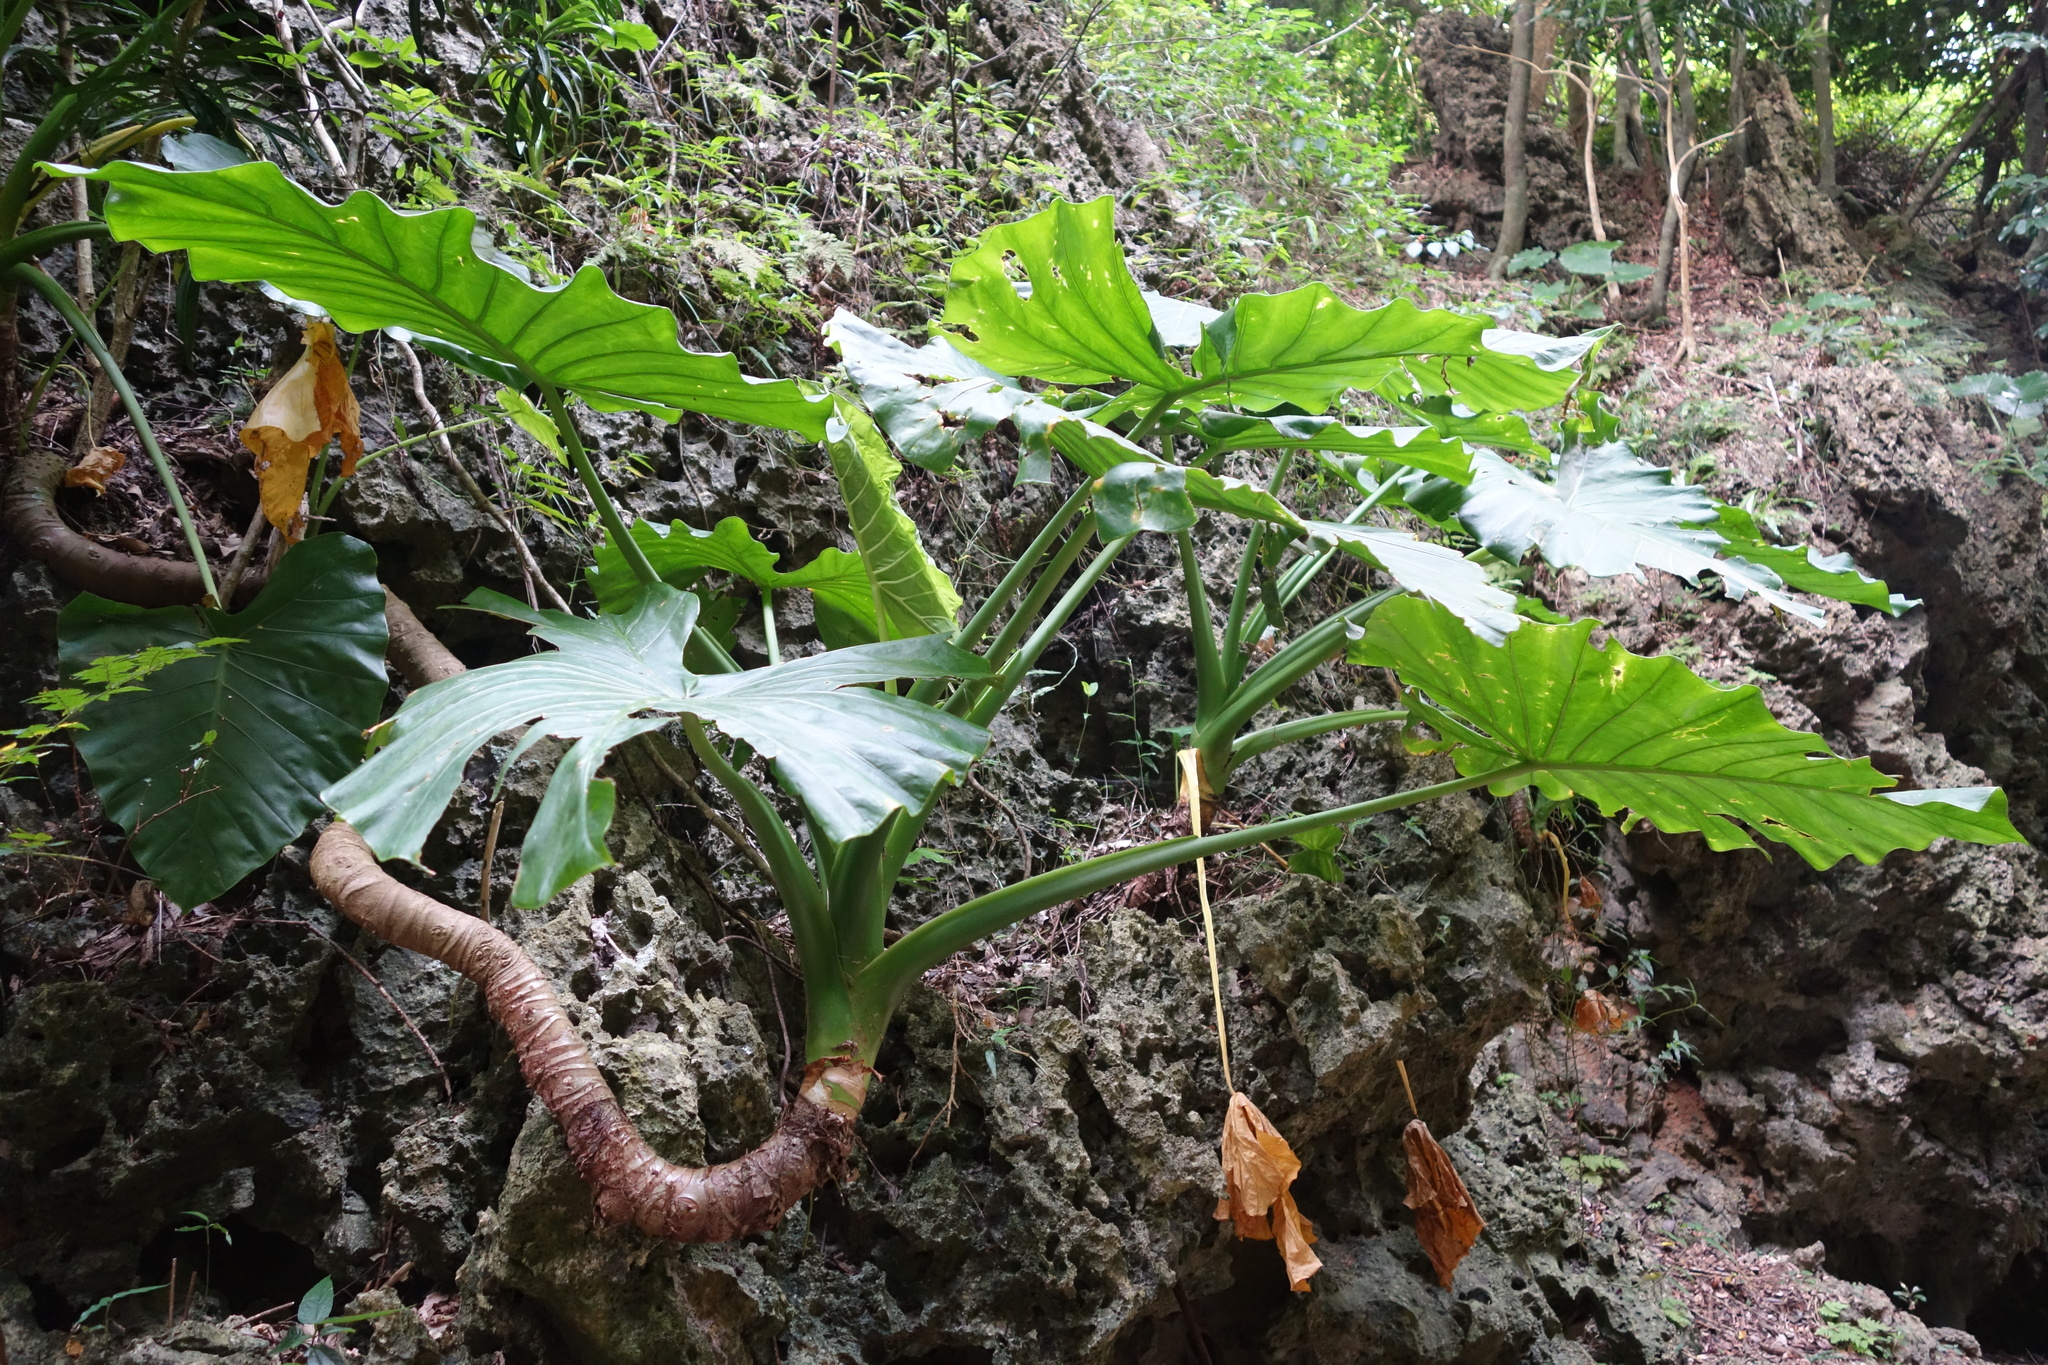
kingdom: Plantae
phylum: Tracheophyta
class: Liliopsida
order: Alismatales
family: Araceae
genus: Alocasia
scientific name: Alocasia odora
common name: Asian taro
